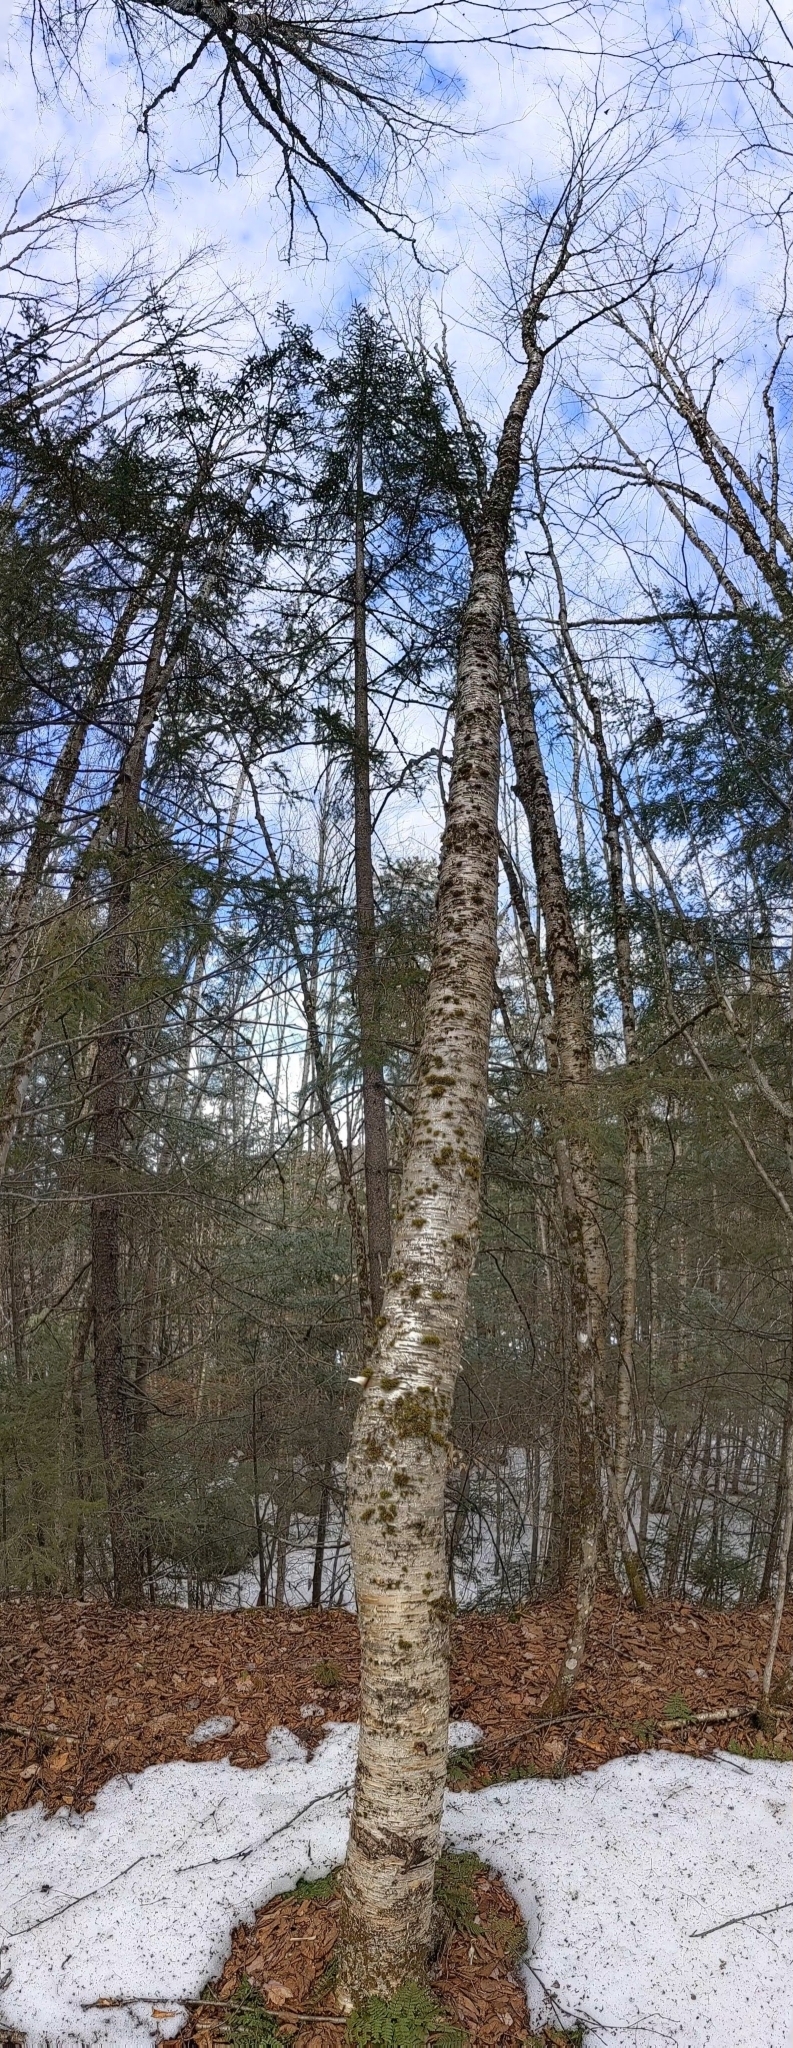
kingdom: Plantae
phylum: Tracheophyta
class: Magnoliopsida
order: Fagales
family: Betulaceae
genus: Betula
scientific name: Betula alleghaniensis
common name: Yellow birch
